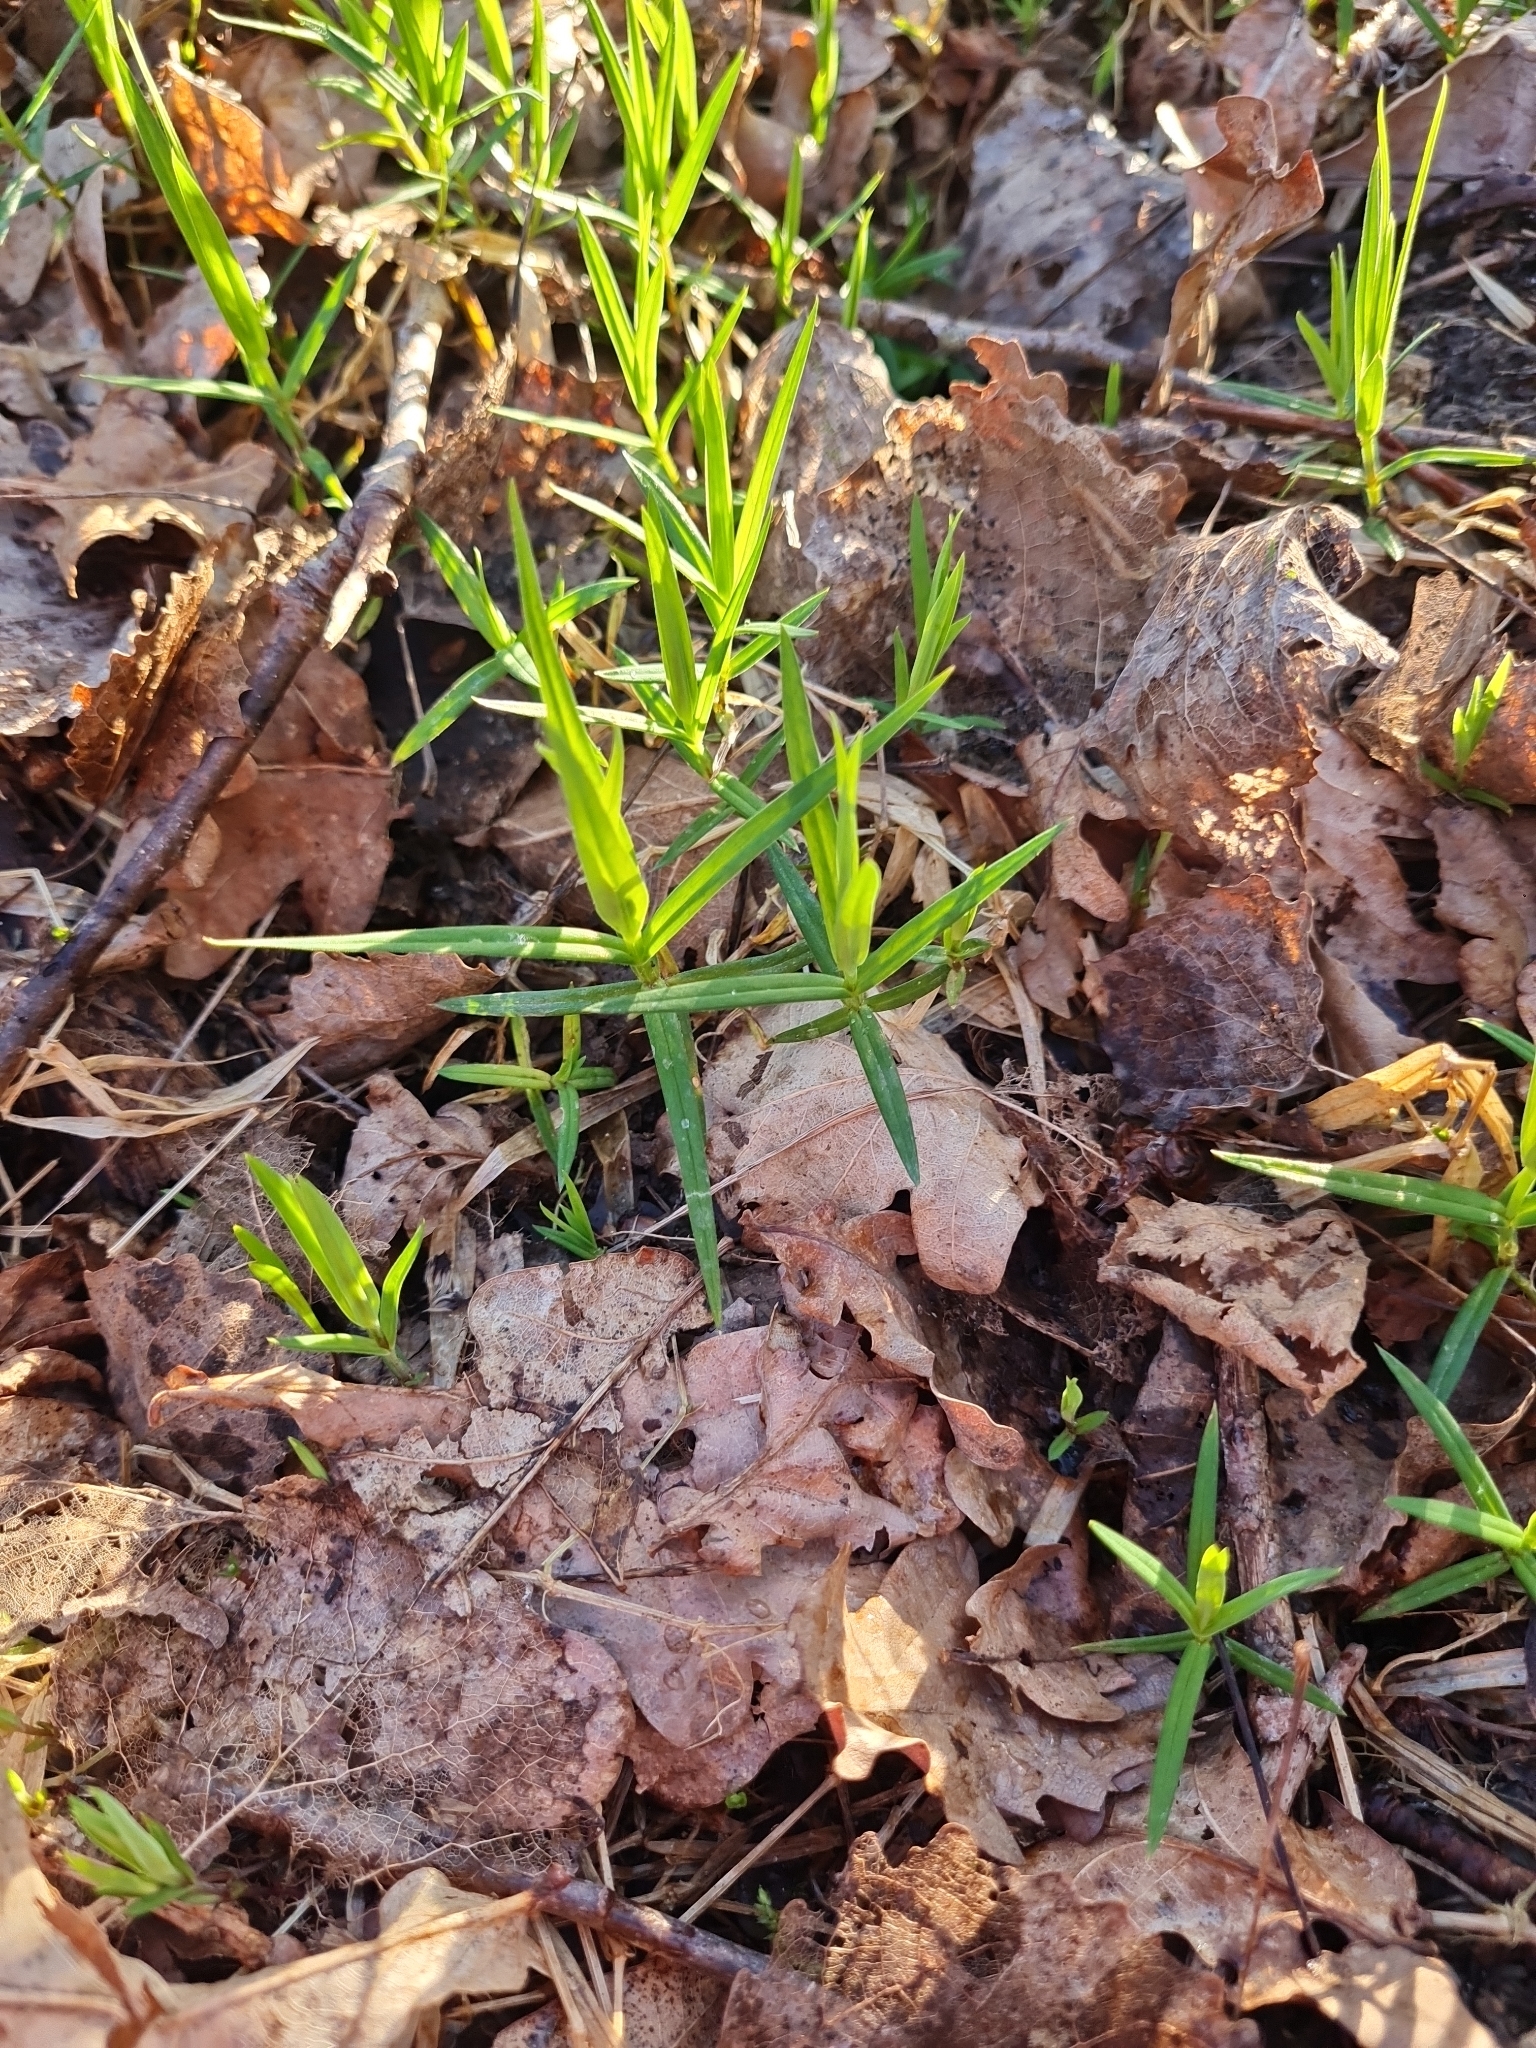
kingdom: Plantae
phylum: Tracheophyta
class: Magnoliopsida
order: Caryophyllales
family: Caryophyllaceae
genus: Rabelera
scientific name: Rabelera holostea
